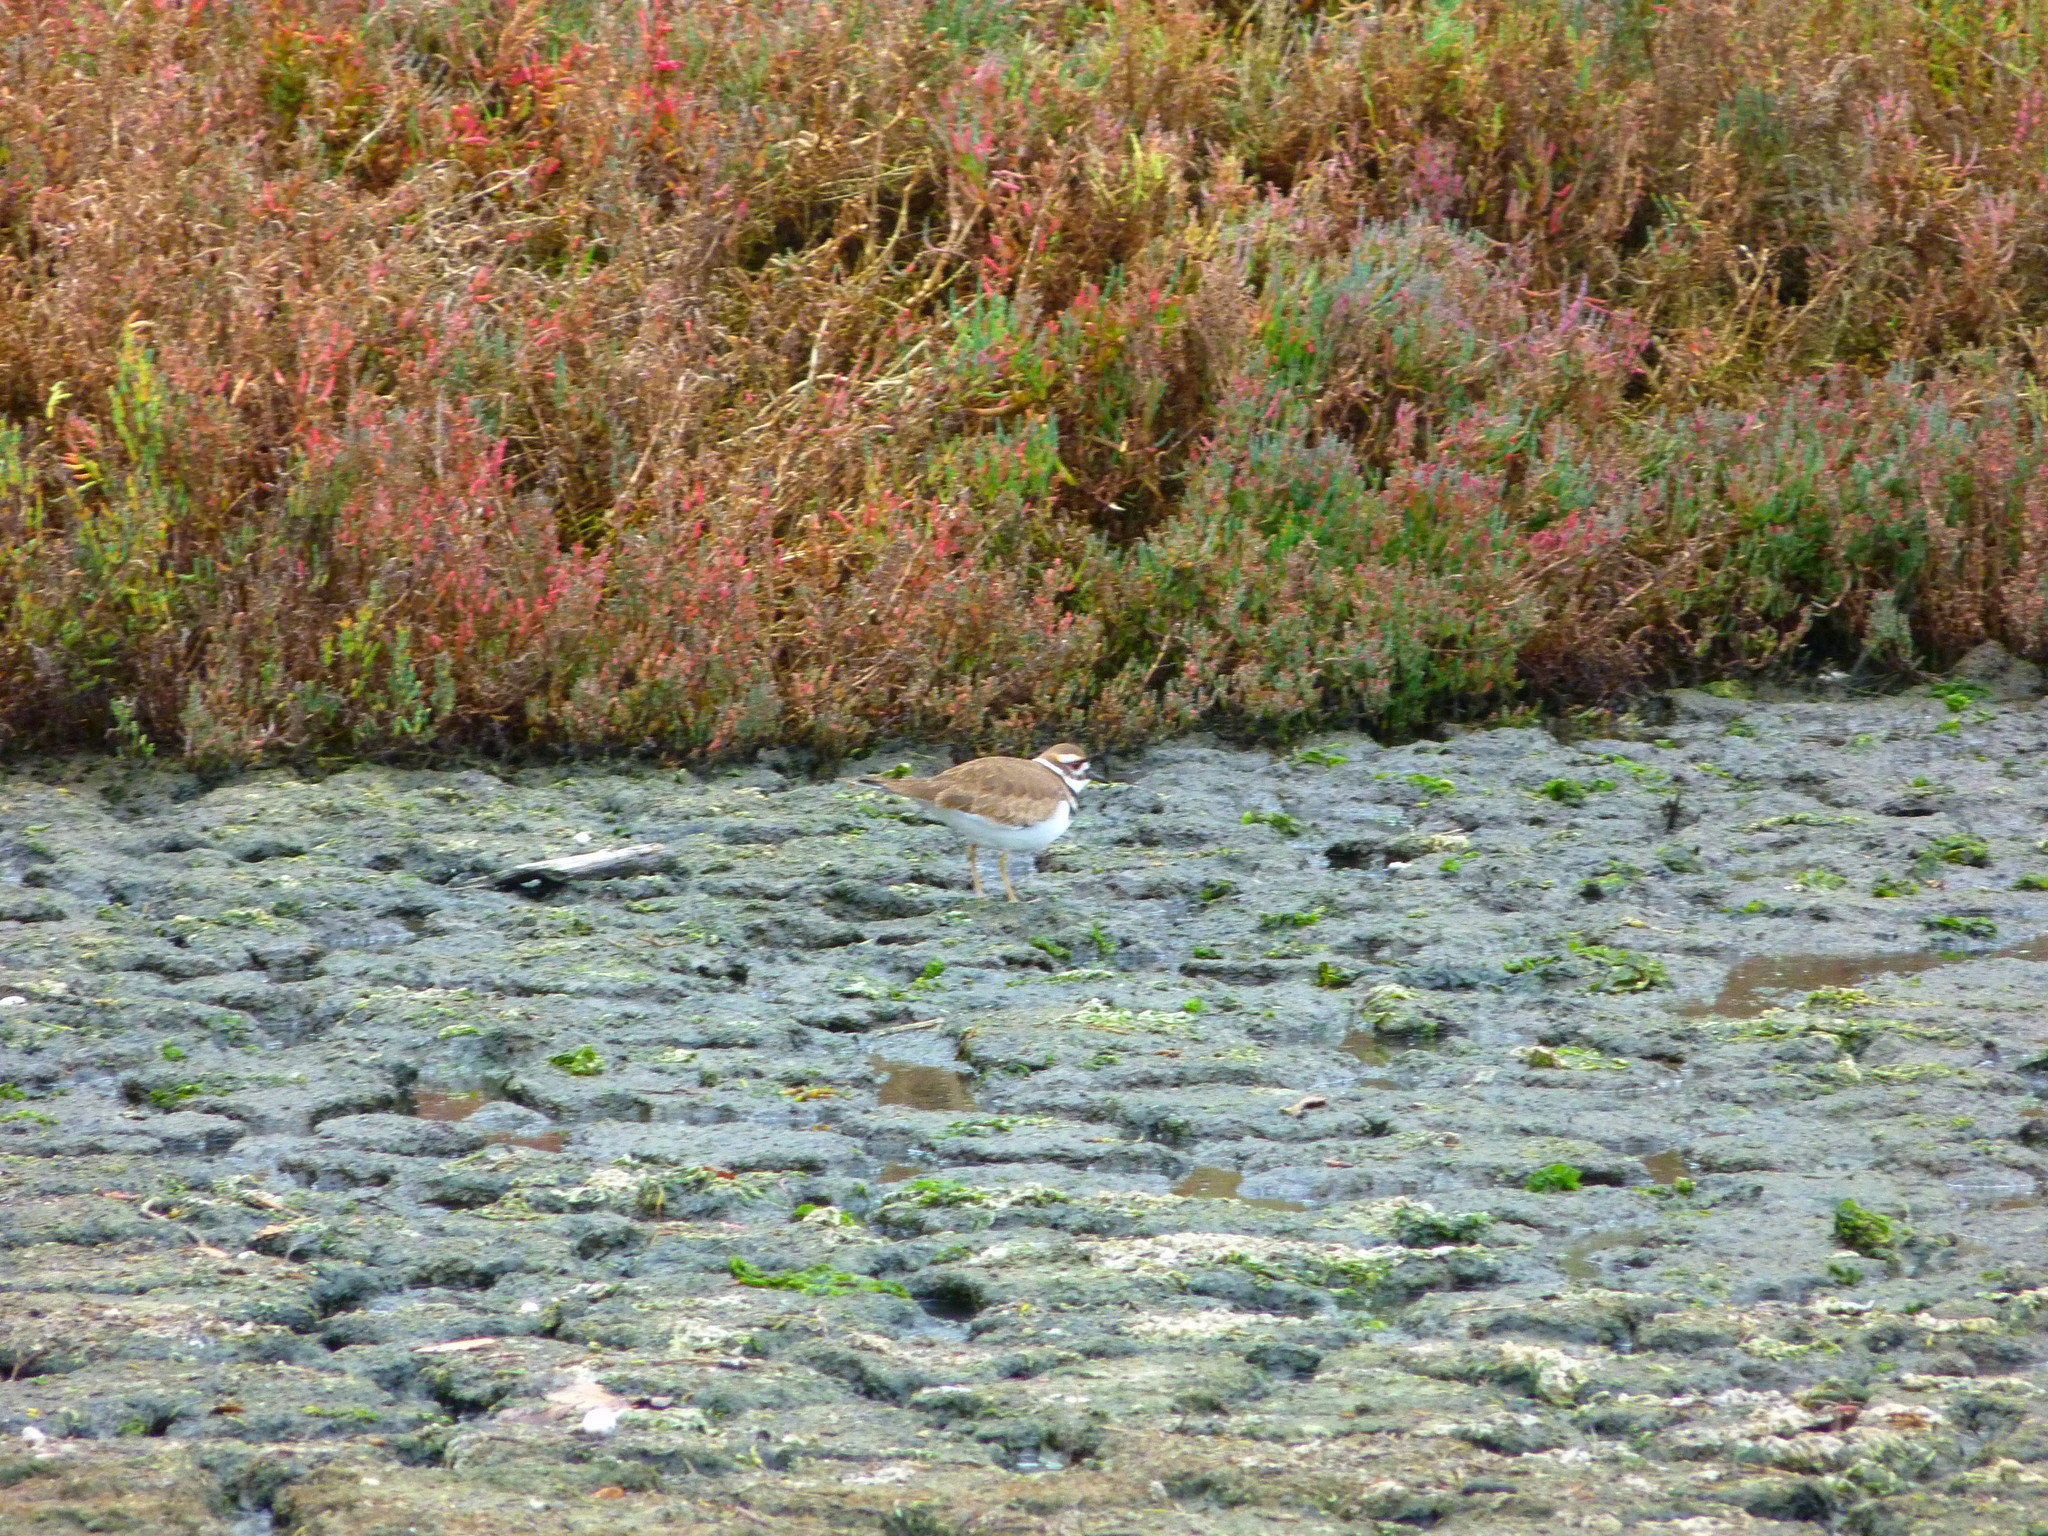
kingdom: Animalia
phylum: Chordata
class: Aves
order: Charadriiformes
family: Charadriidae
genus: Charadrius
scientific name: Charadrius vociferus
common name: Killdeer
